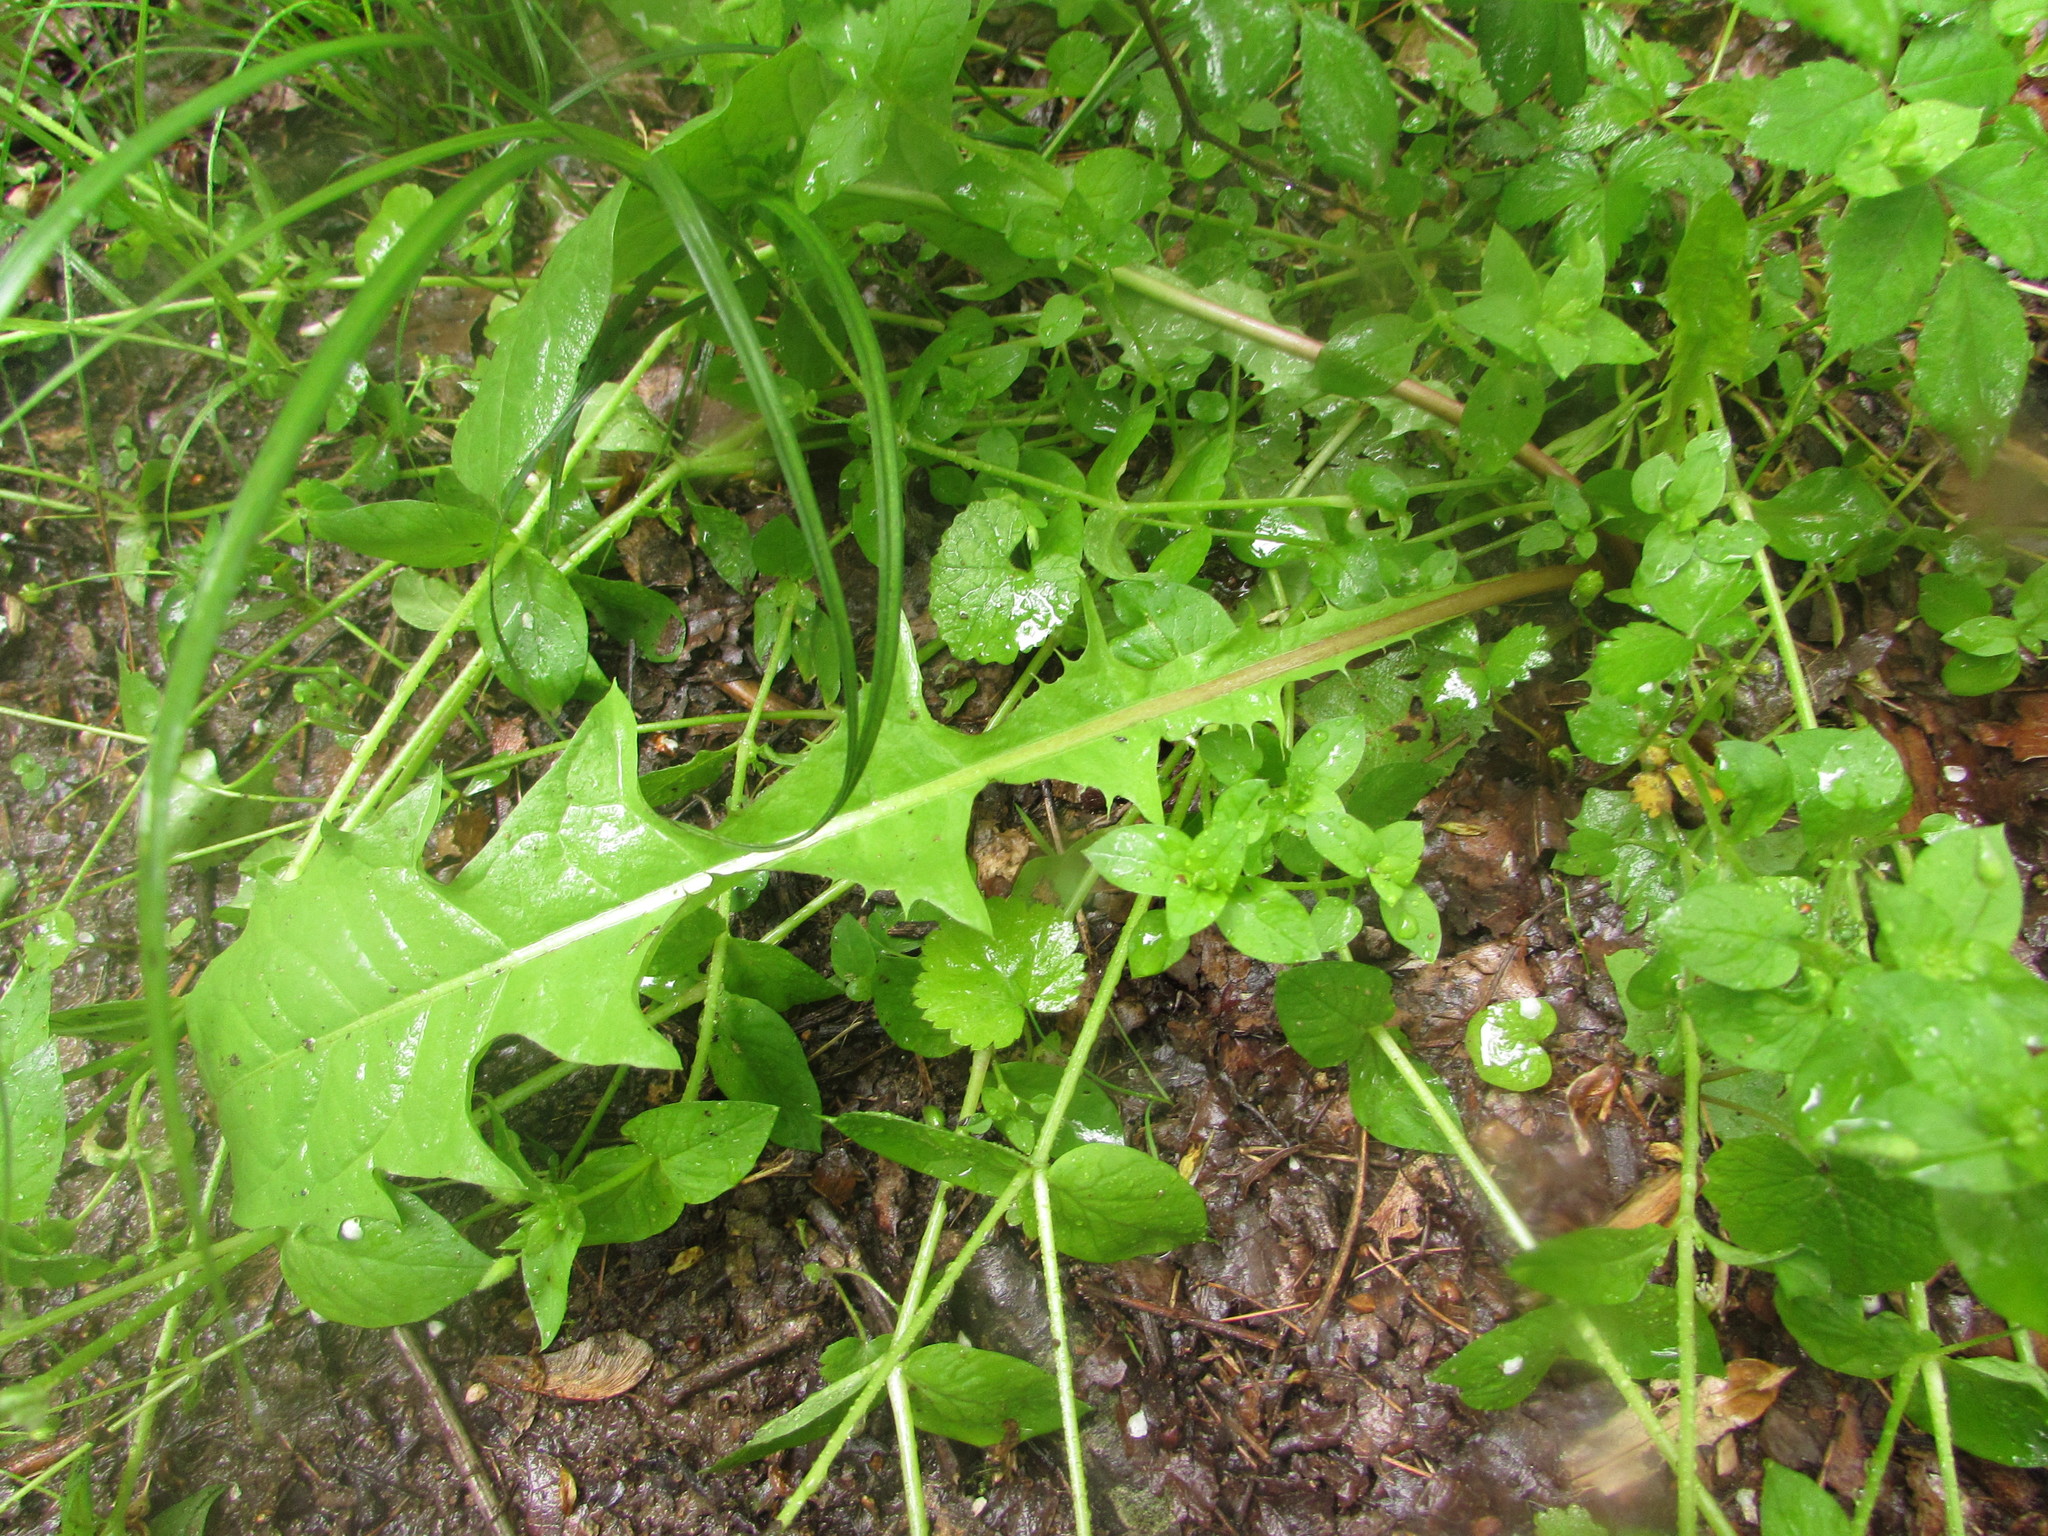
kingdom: Plantae
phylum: Tracheophyta
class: Magnoliopsida
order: Asterales
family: Asteraceae
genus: Taraxacum
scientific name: Taraxacum
